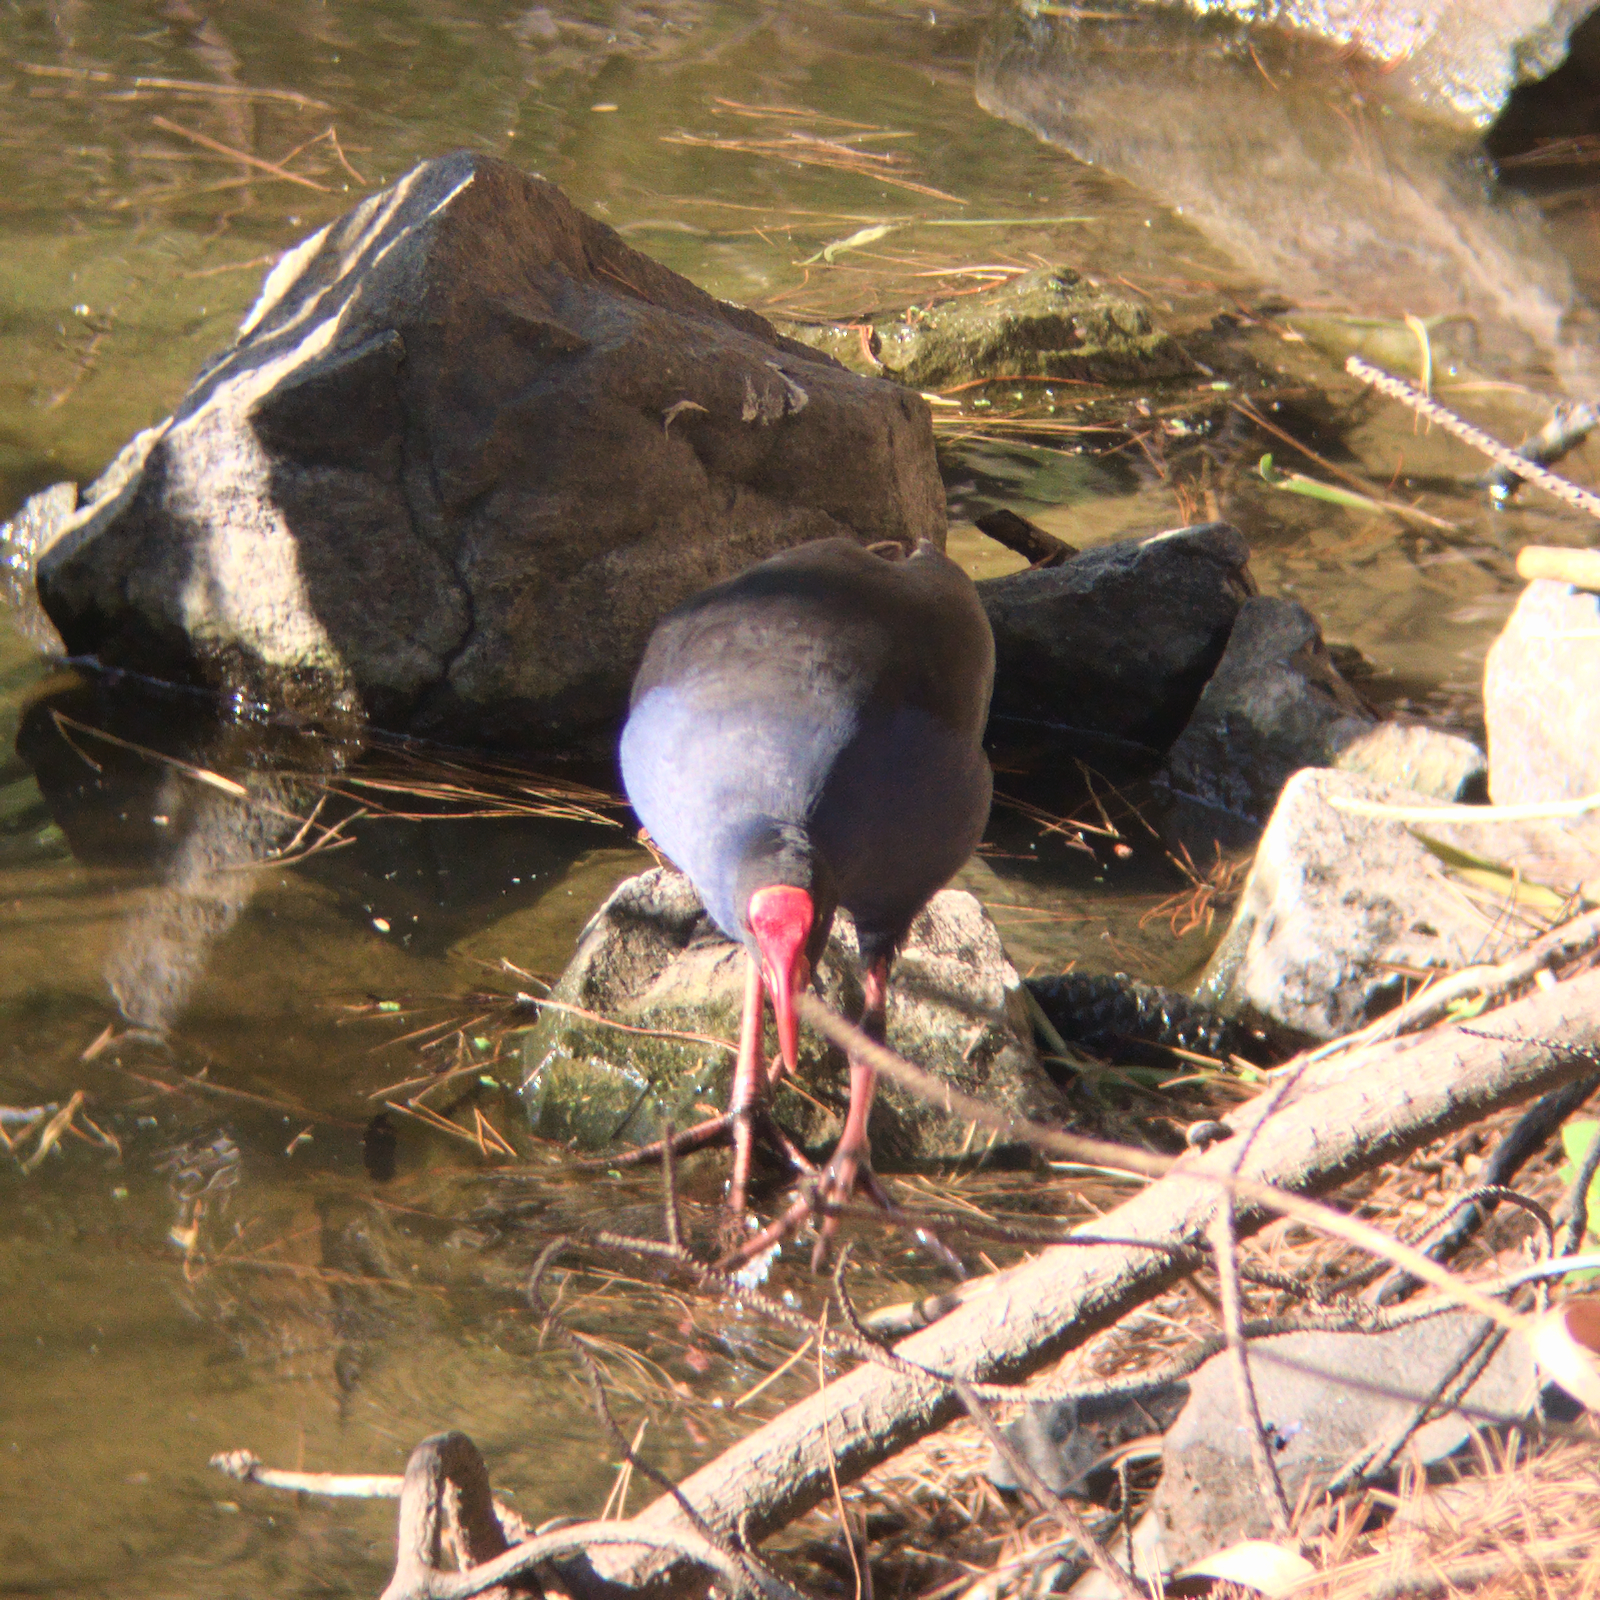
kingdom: Animalia
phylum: Chordata
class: Aves
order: Gruiformes
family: Rallidae
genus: Porphyrio
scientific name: Porphyrio melanotus
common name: Australasian swamphen
